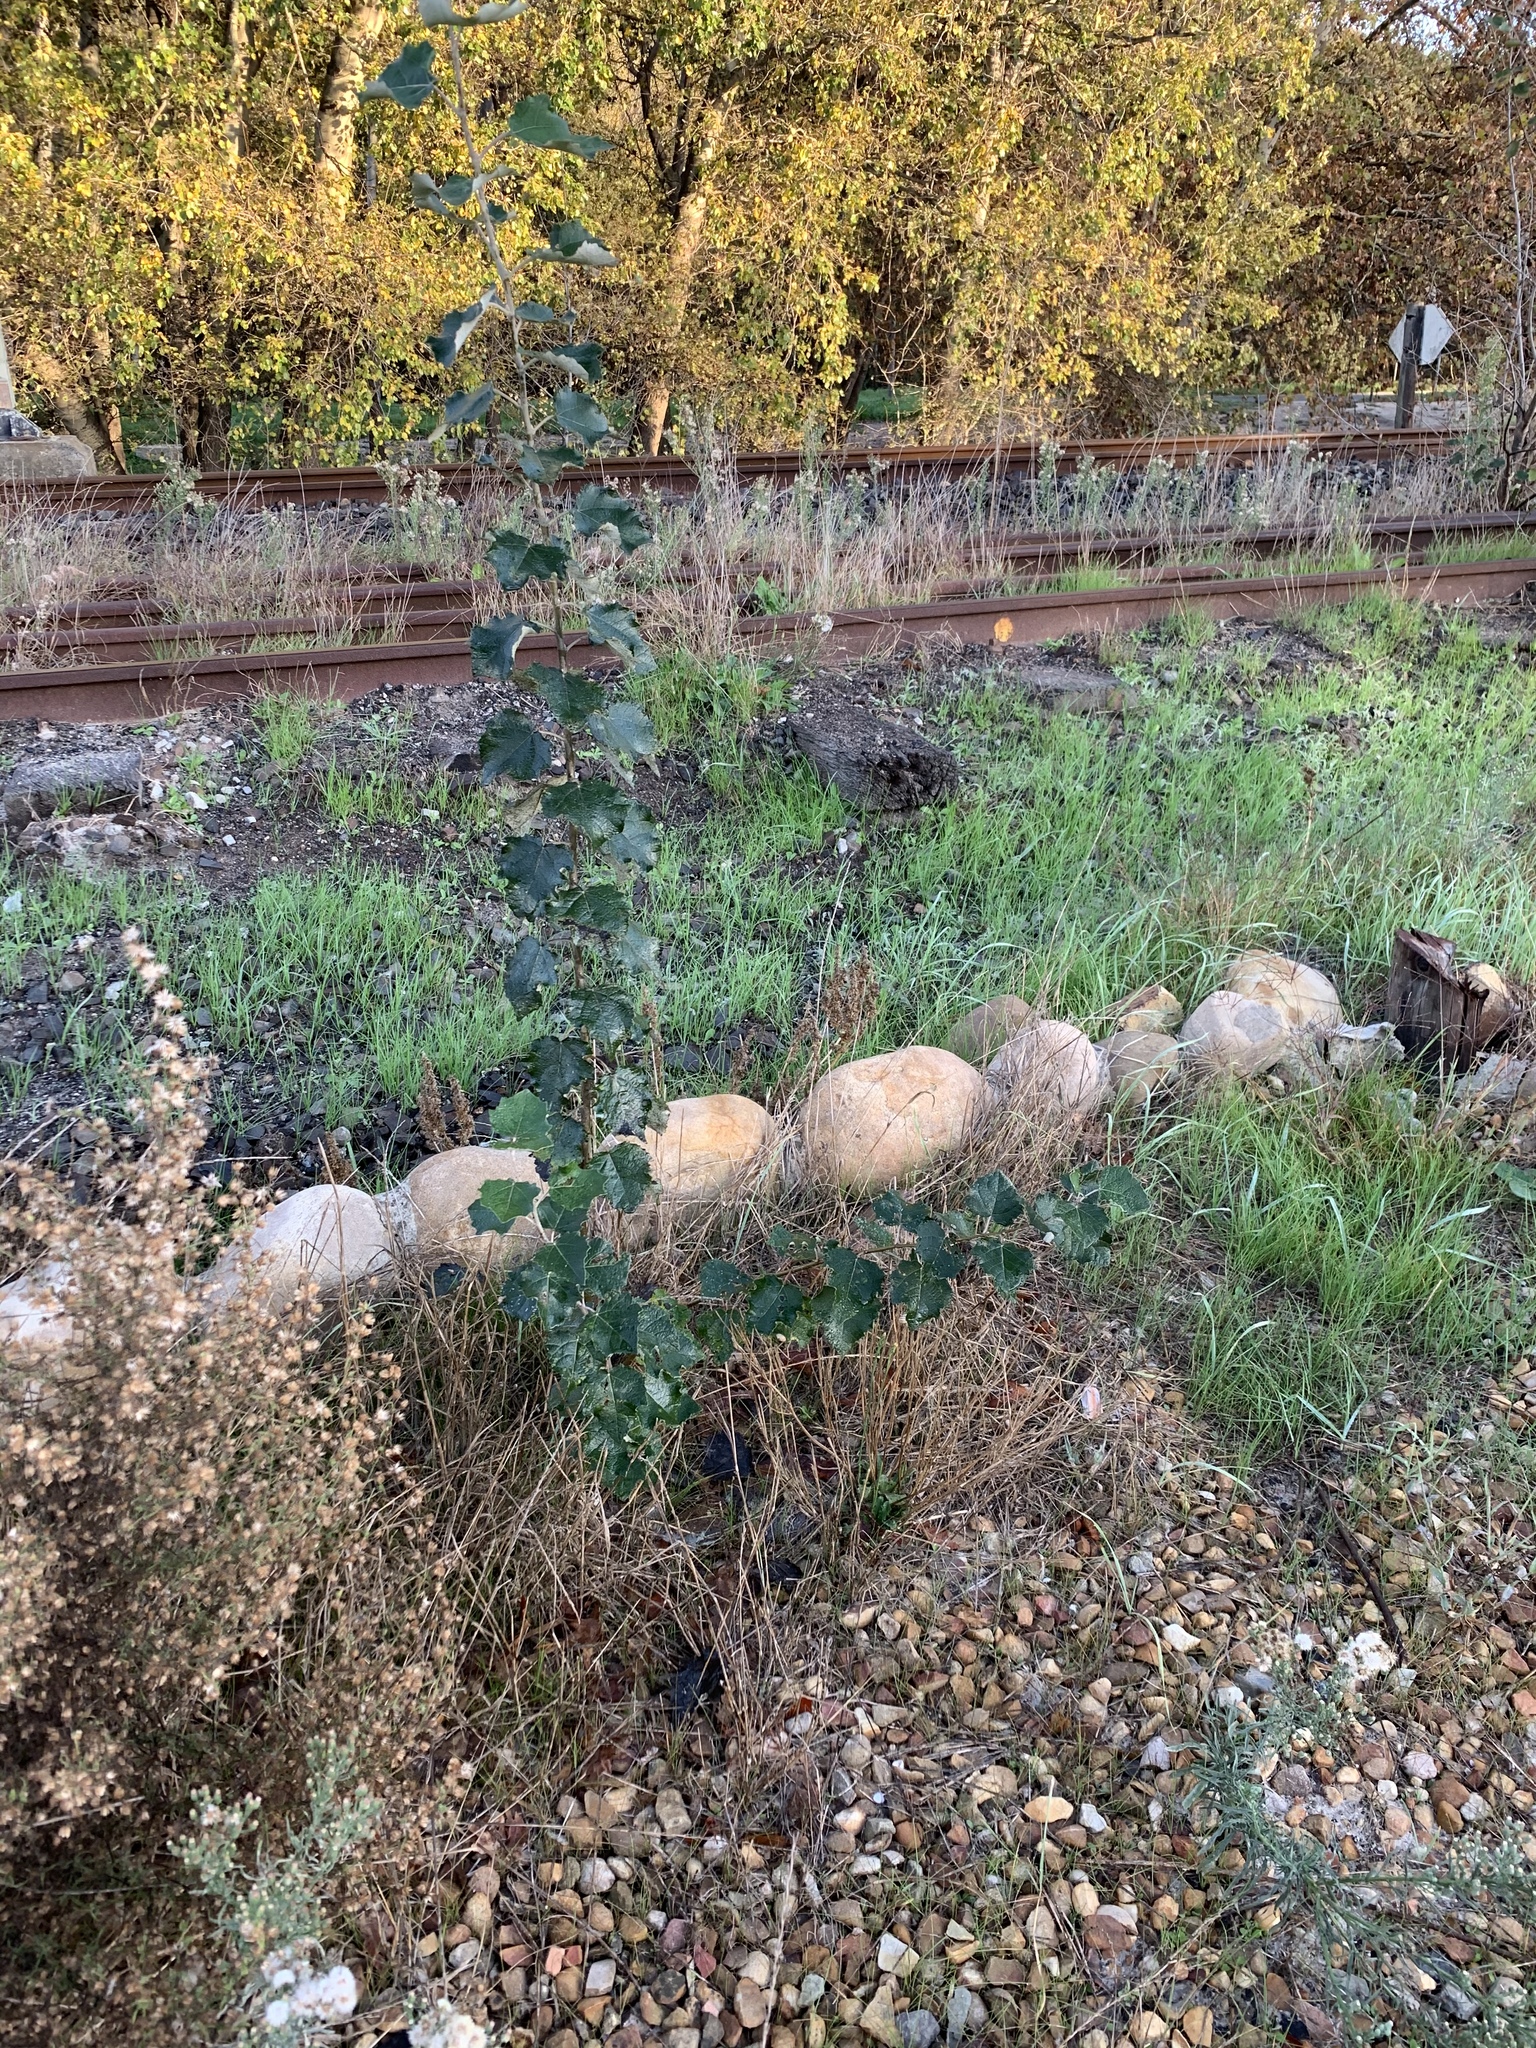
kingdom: Plantae
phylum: Tracheophyta
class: Magnoliopsida
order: Malpighiales
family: Salicaceae
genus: Populus
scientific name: Populus canescens
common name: Gray poplar
